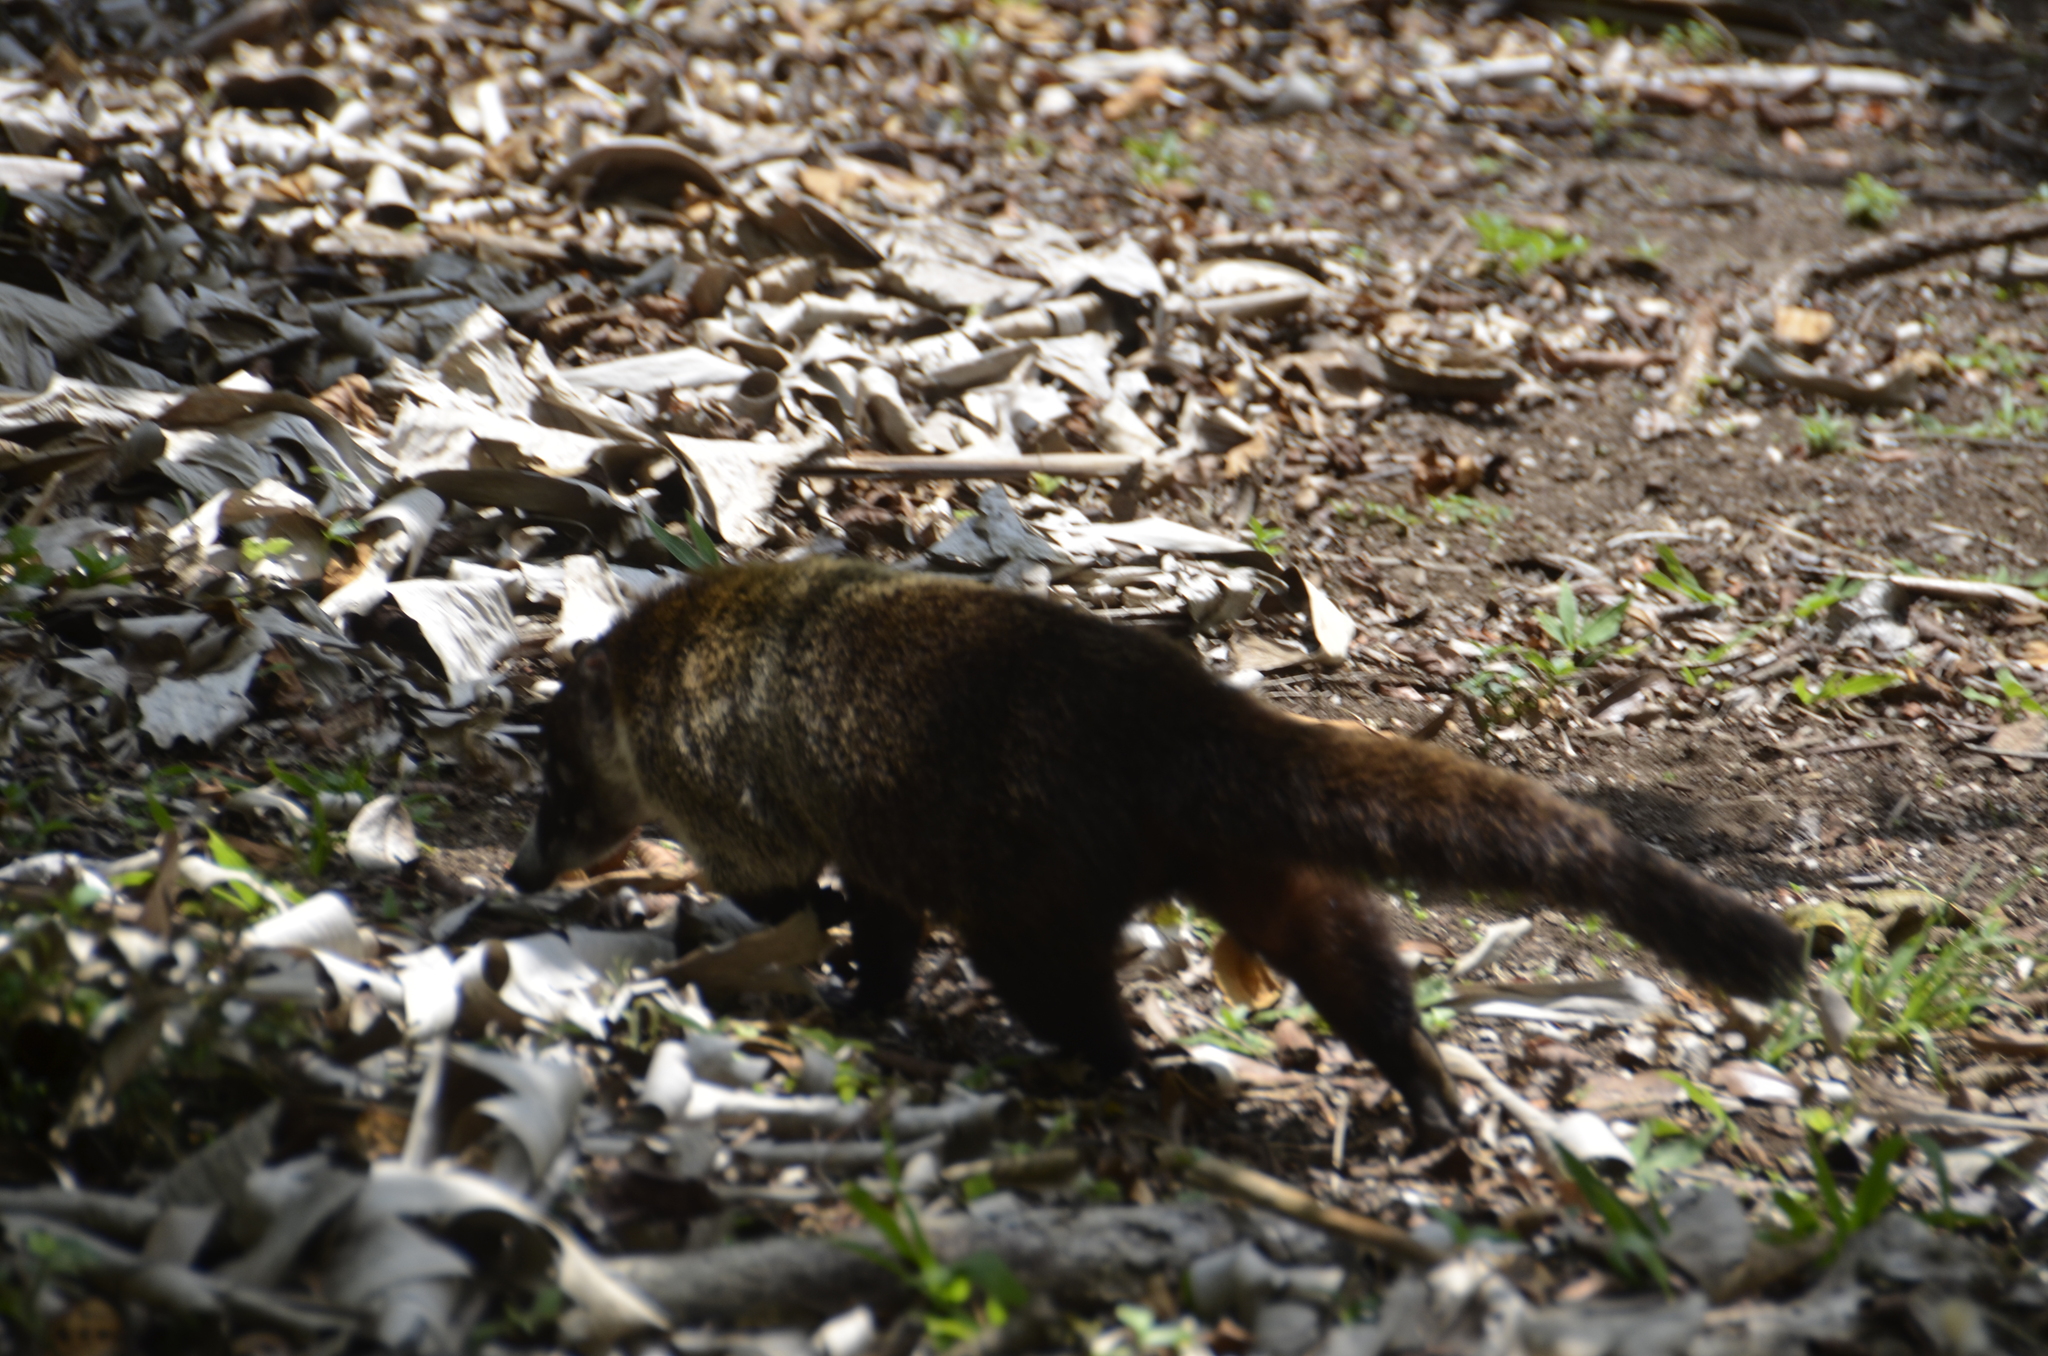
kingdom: Animalia
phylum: Chordata
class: Mammalia
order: Carnivora
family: Procyonidae
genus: Nasua
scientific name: Nasua narica
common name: White-nosed coati
